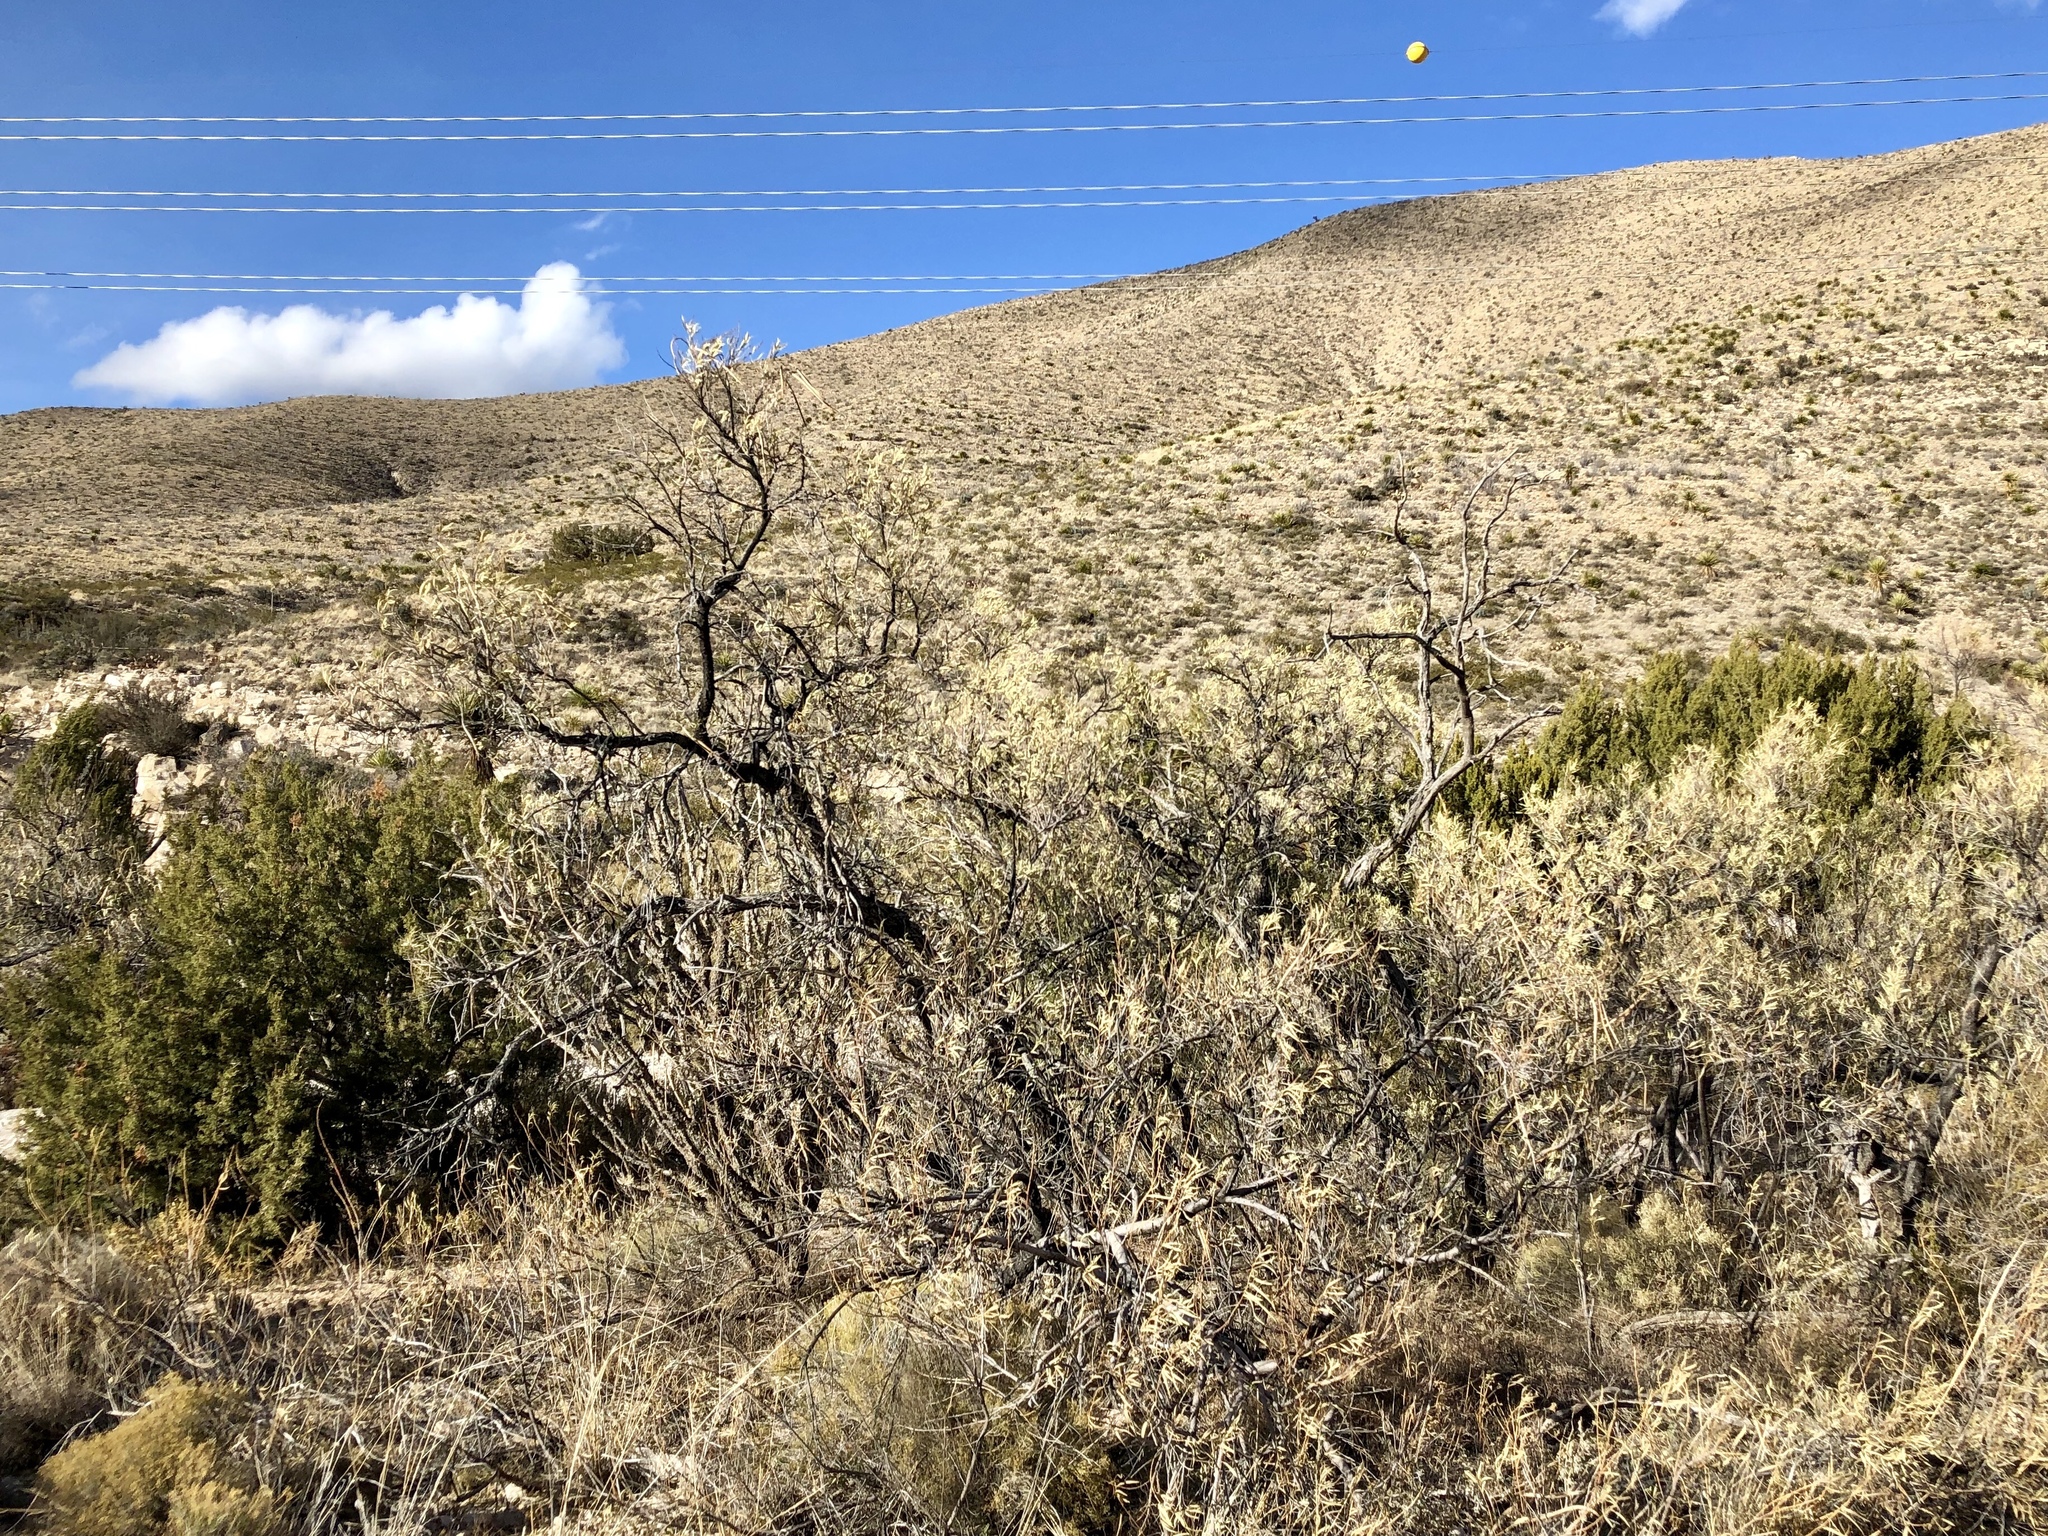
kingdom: Plantae
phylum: Tracheophyta
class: Magnoliopsida
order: Lamiales
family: Bignoniaceae
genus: Chilopsis
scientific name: Chilopsis linearis
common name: Desert-willow
